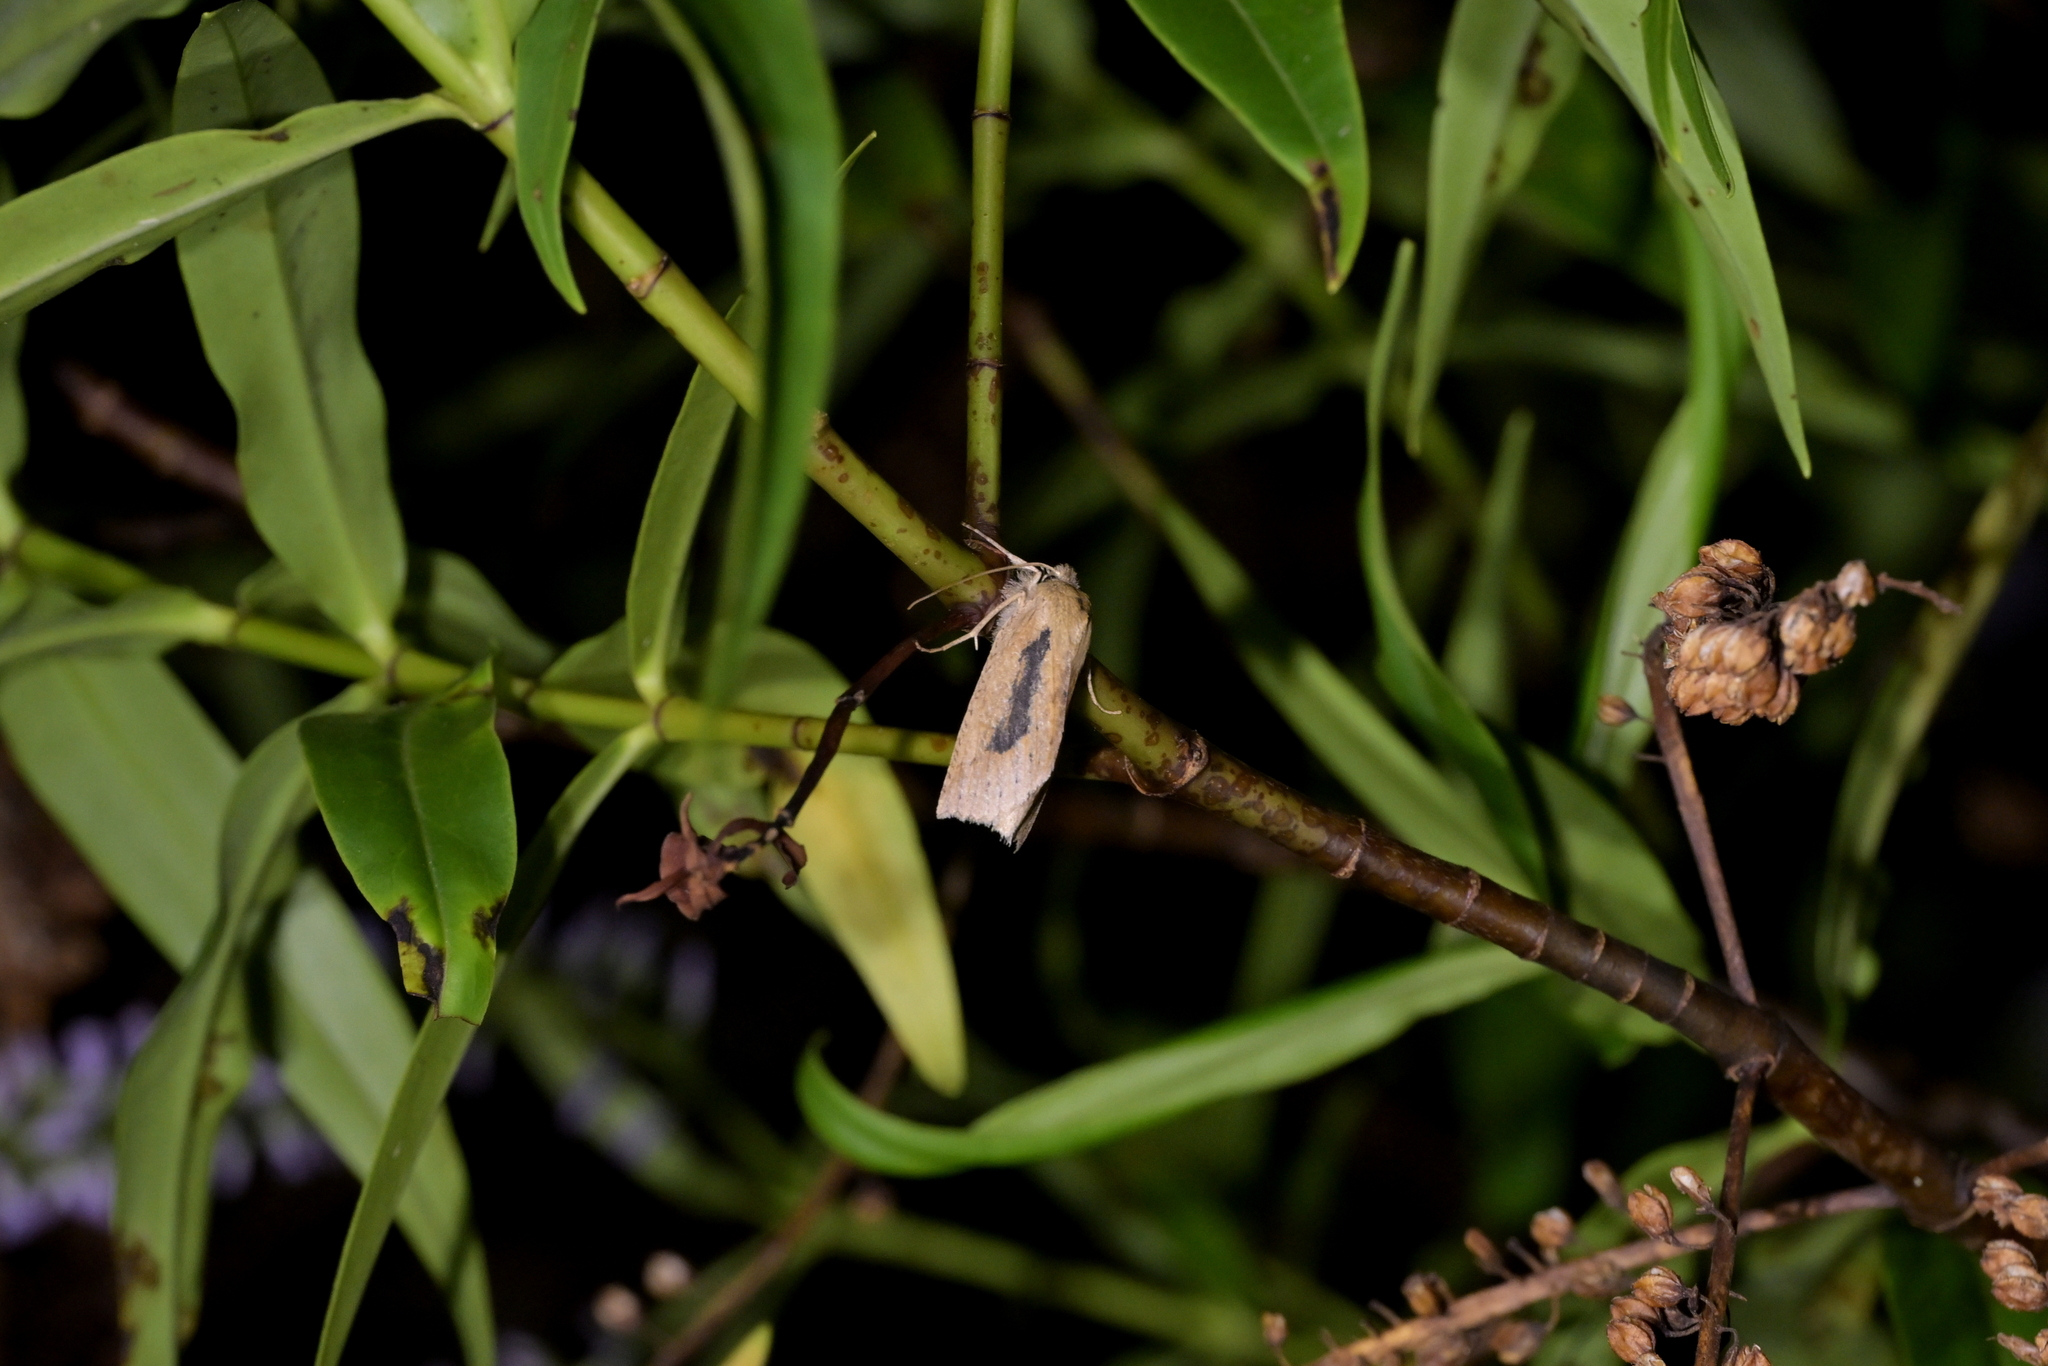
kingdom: Animalia
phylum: Arthropoda
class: Insecta
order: Lepidoptera
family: Geometridae
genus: Declana
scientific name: Declana leptomera
